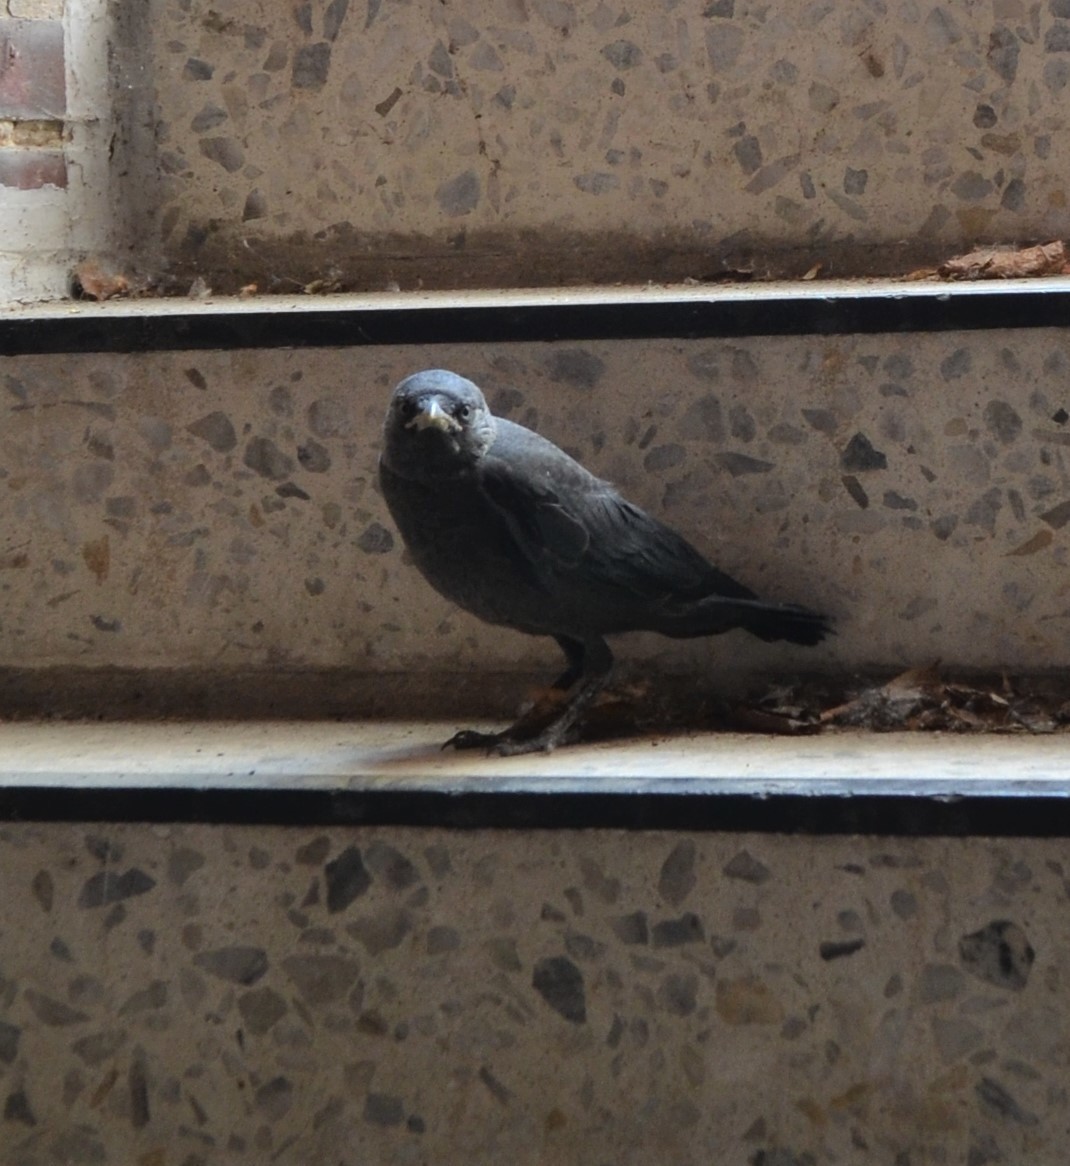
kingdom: Animalia
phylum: Chordata
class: Aves
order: Passeriformes
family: Corvidae
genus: Coloeus
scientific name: Coloeus monedula
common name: Western jackdaw
